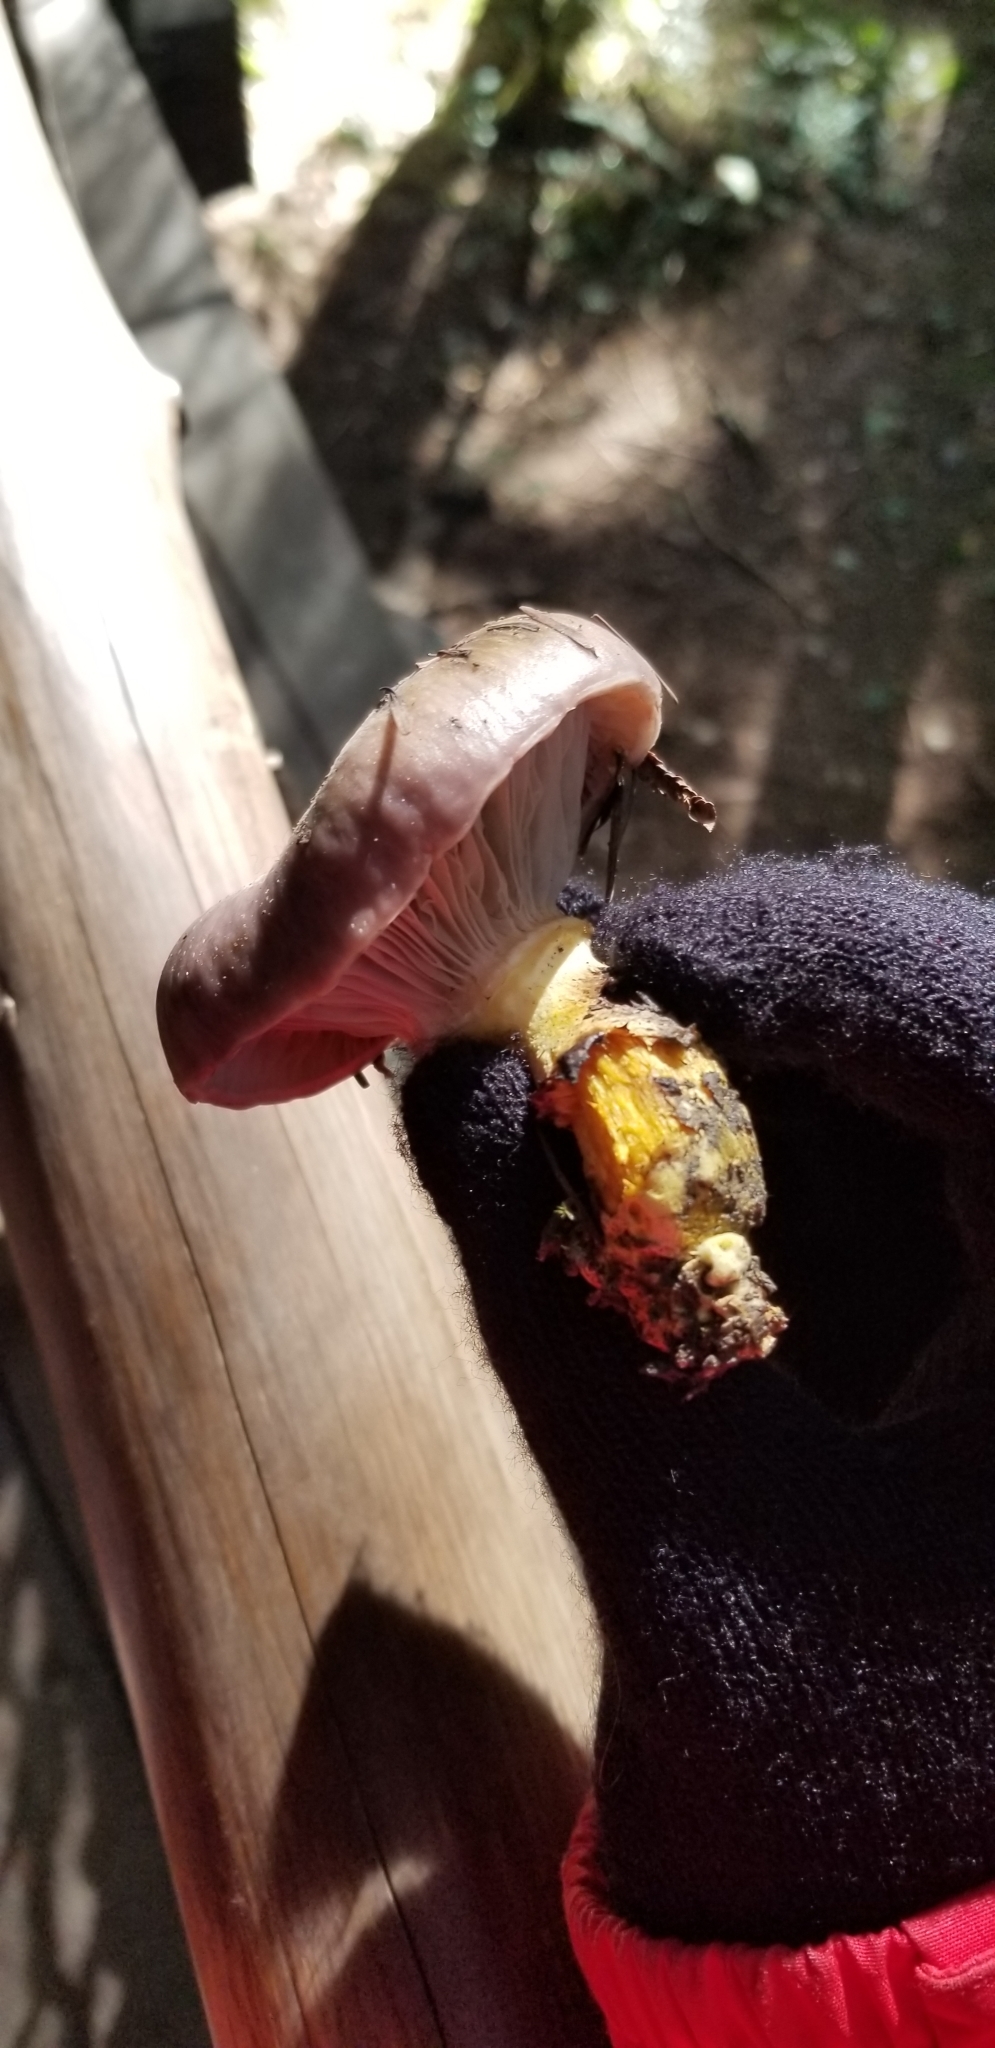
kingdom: Fungi
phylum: Basidiomycota
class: Agaricomycetes
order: Boletales
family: Gomphidiaceae
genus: Gomphidius
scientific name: Gomphidius glutinosus
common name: Slimy spike
